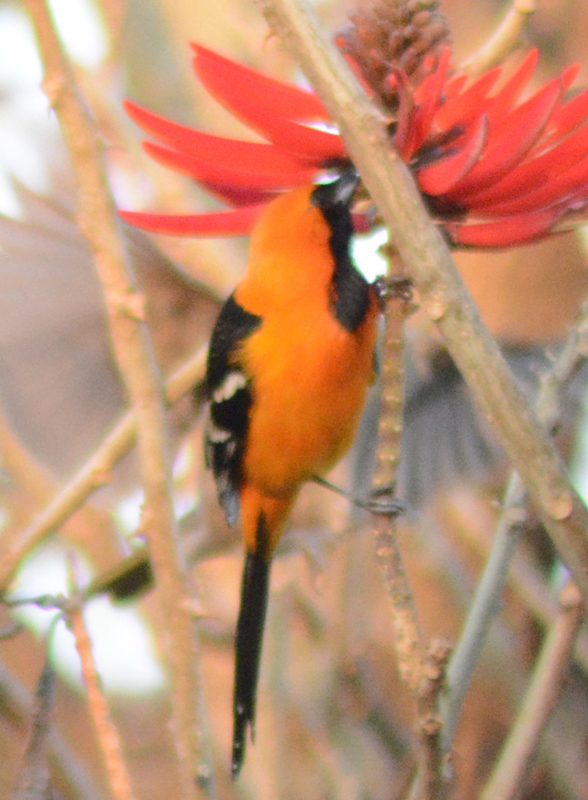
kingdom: Animalia
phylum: Chordata
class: Aves
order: Passeriformes
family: Icteridae
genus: Icterus
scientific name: Icterus cucullatus
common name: Hooded oriole
